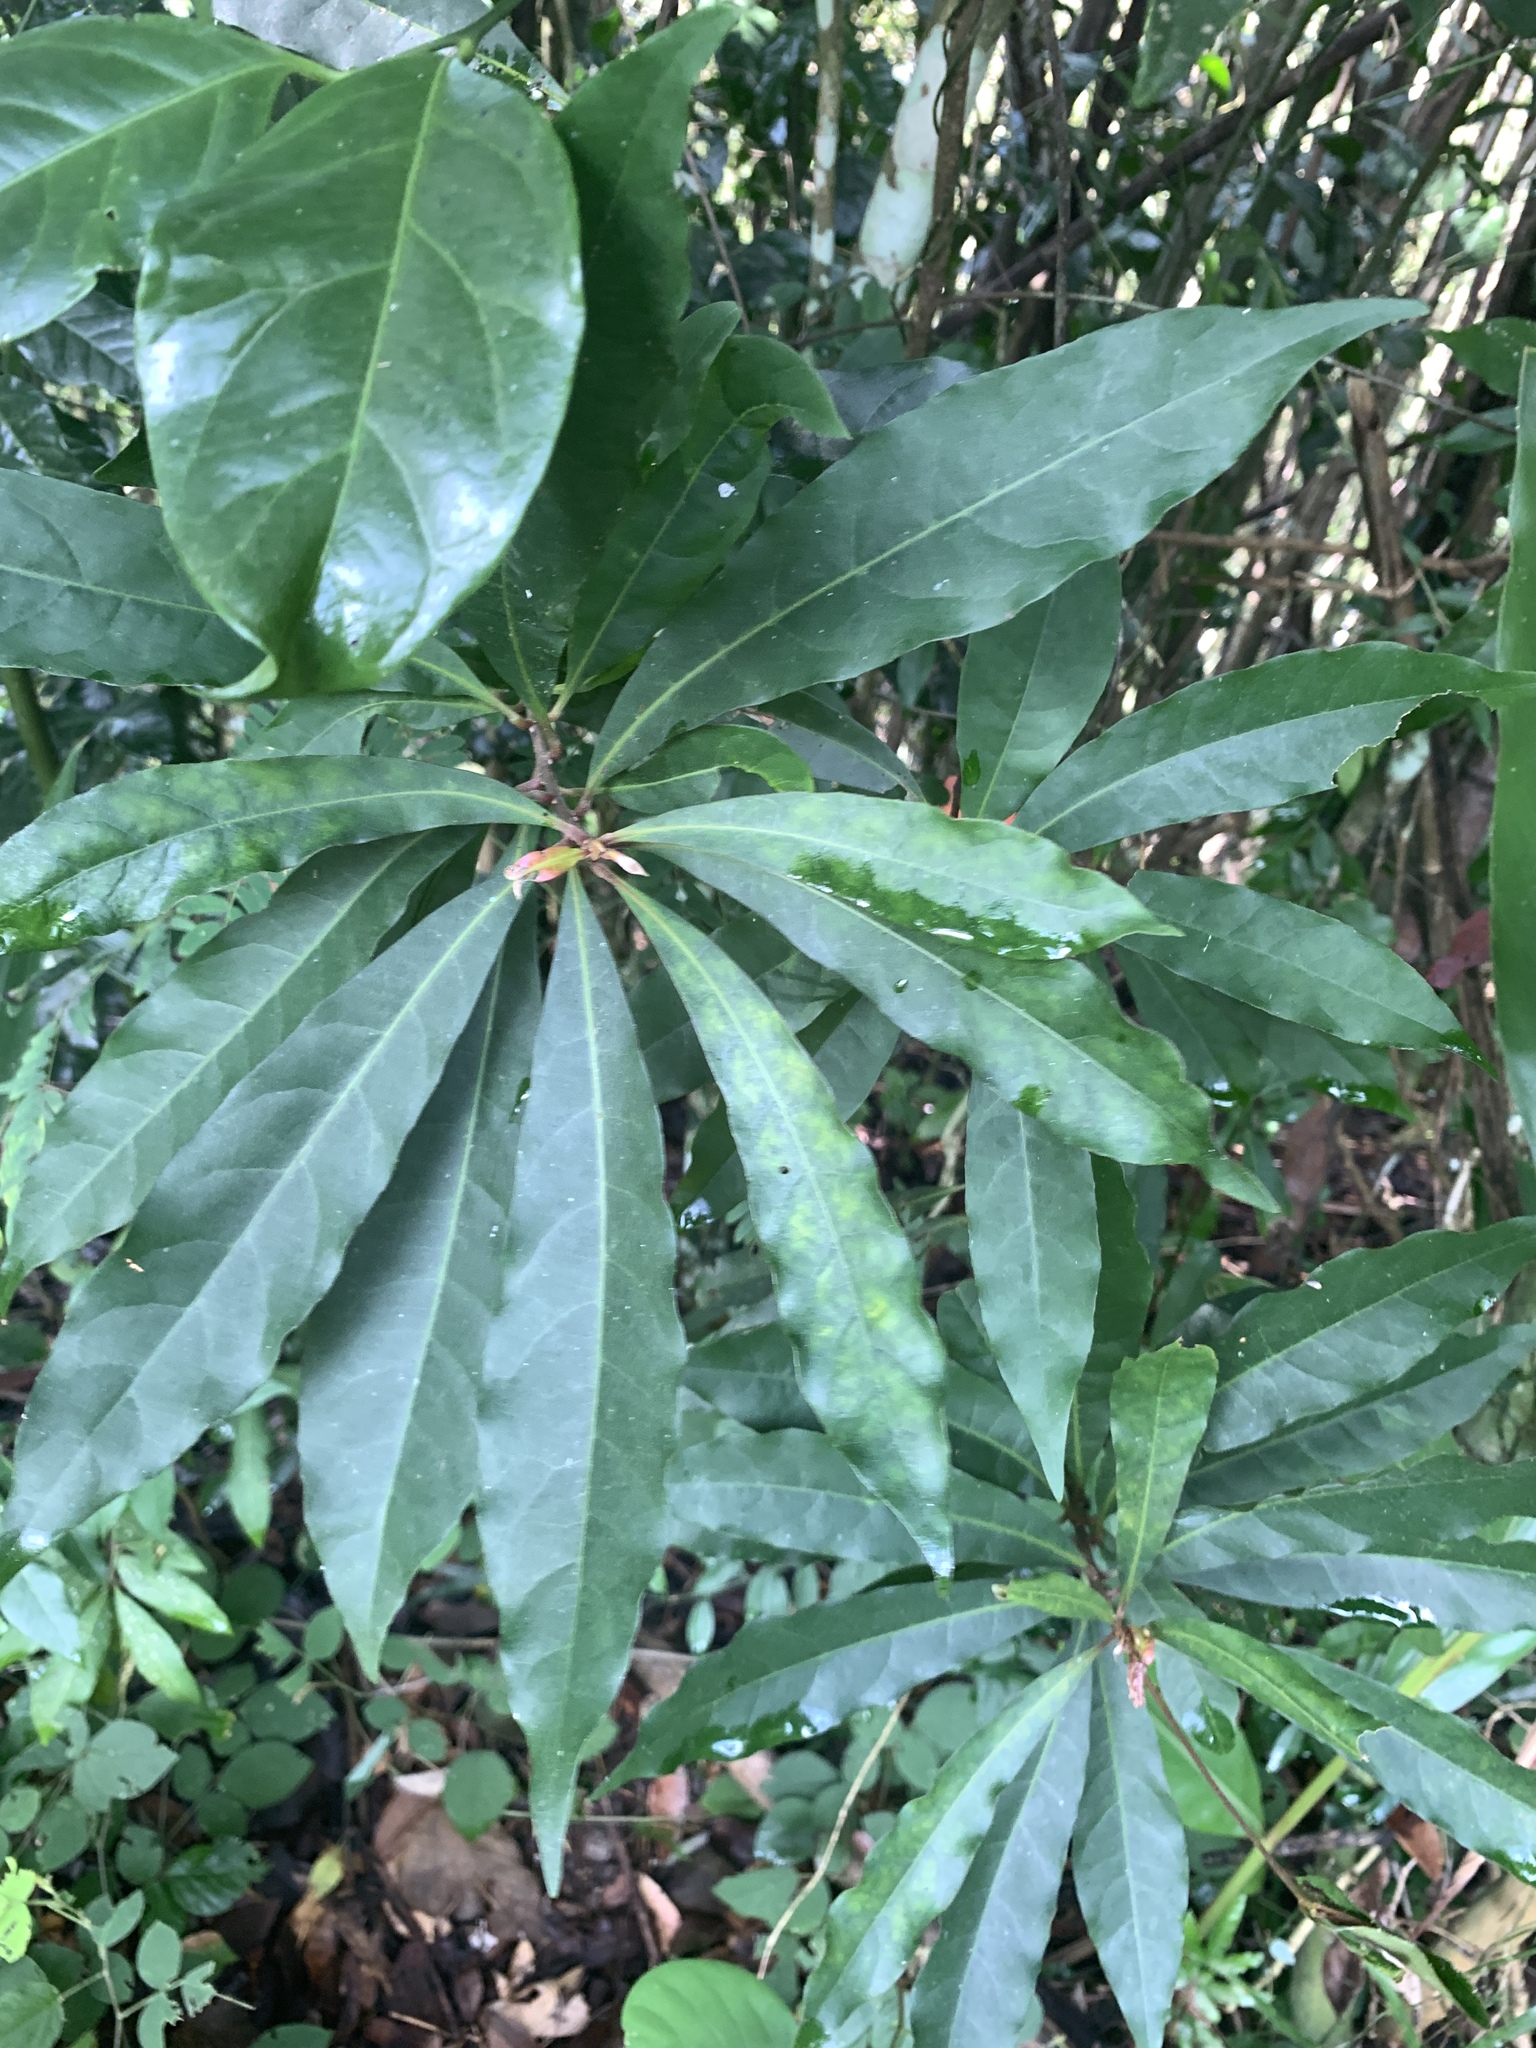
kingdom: Plantae
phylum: Tracheophyta
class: Magnoliopsida
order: Oxalidales
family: Elaeocarpaceae
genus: Elaeocarpus
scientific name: Elaeocarpus decipiens
